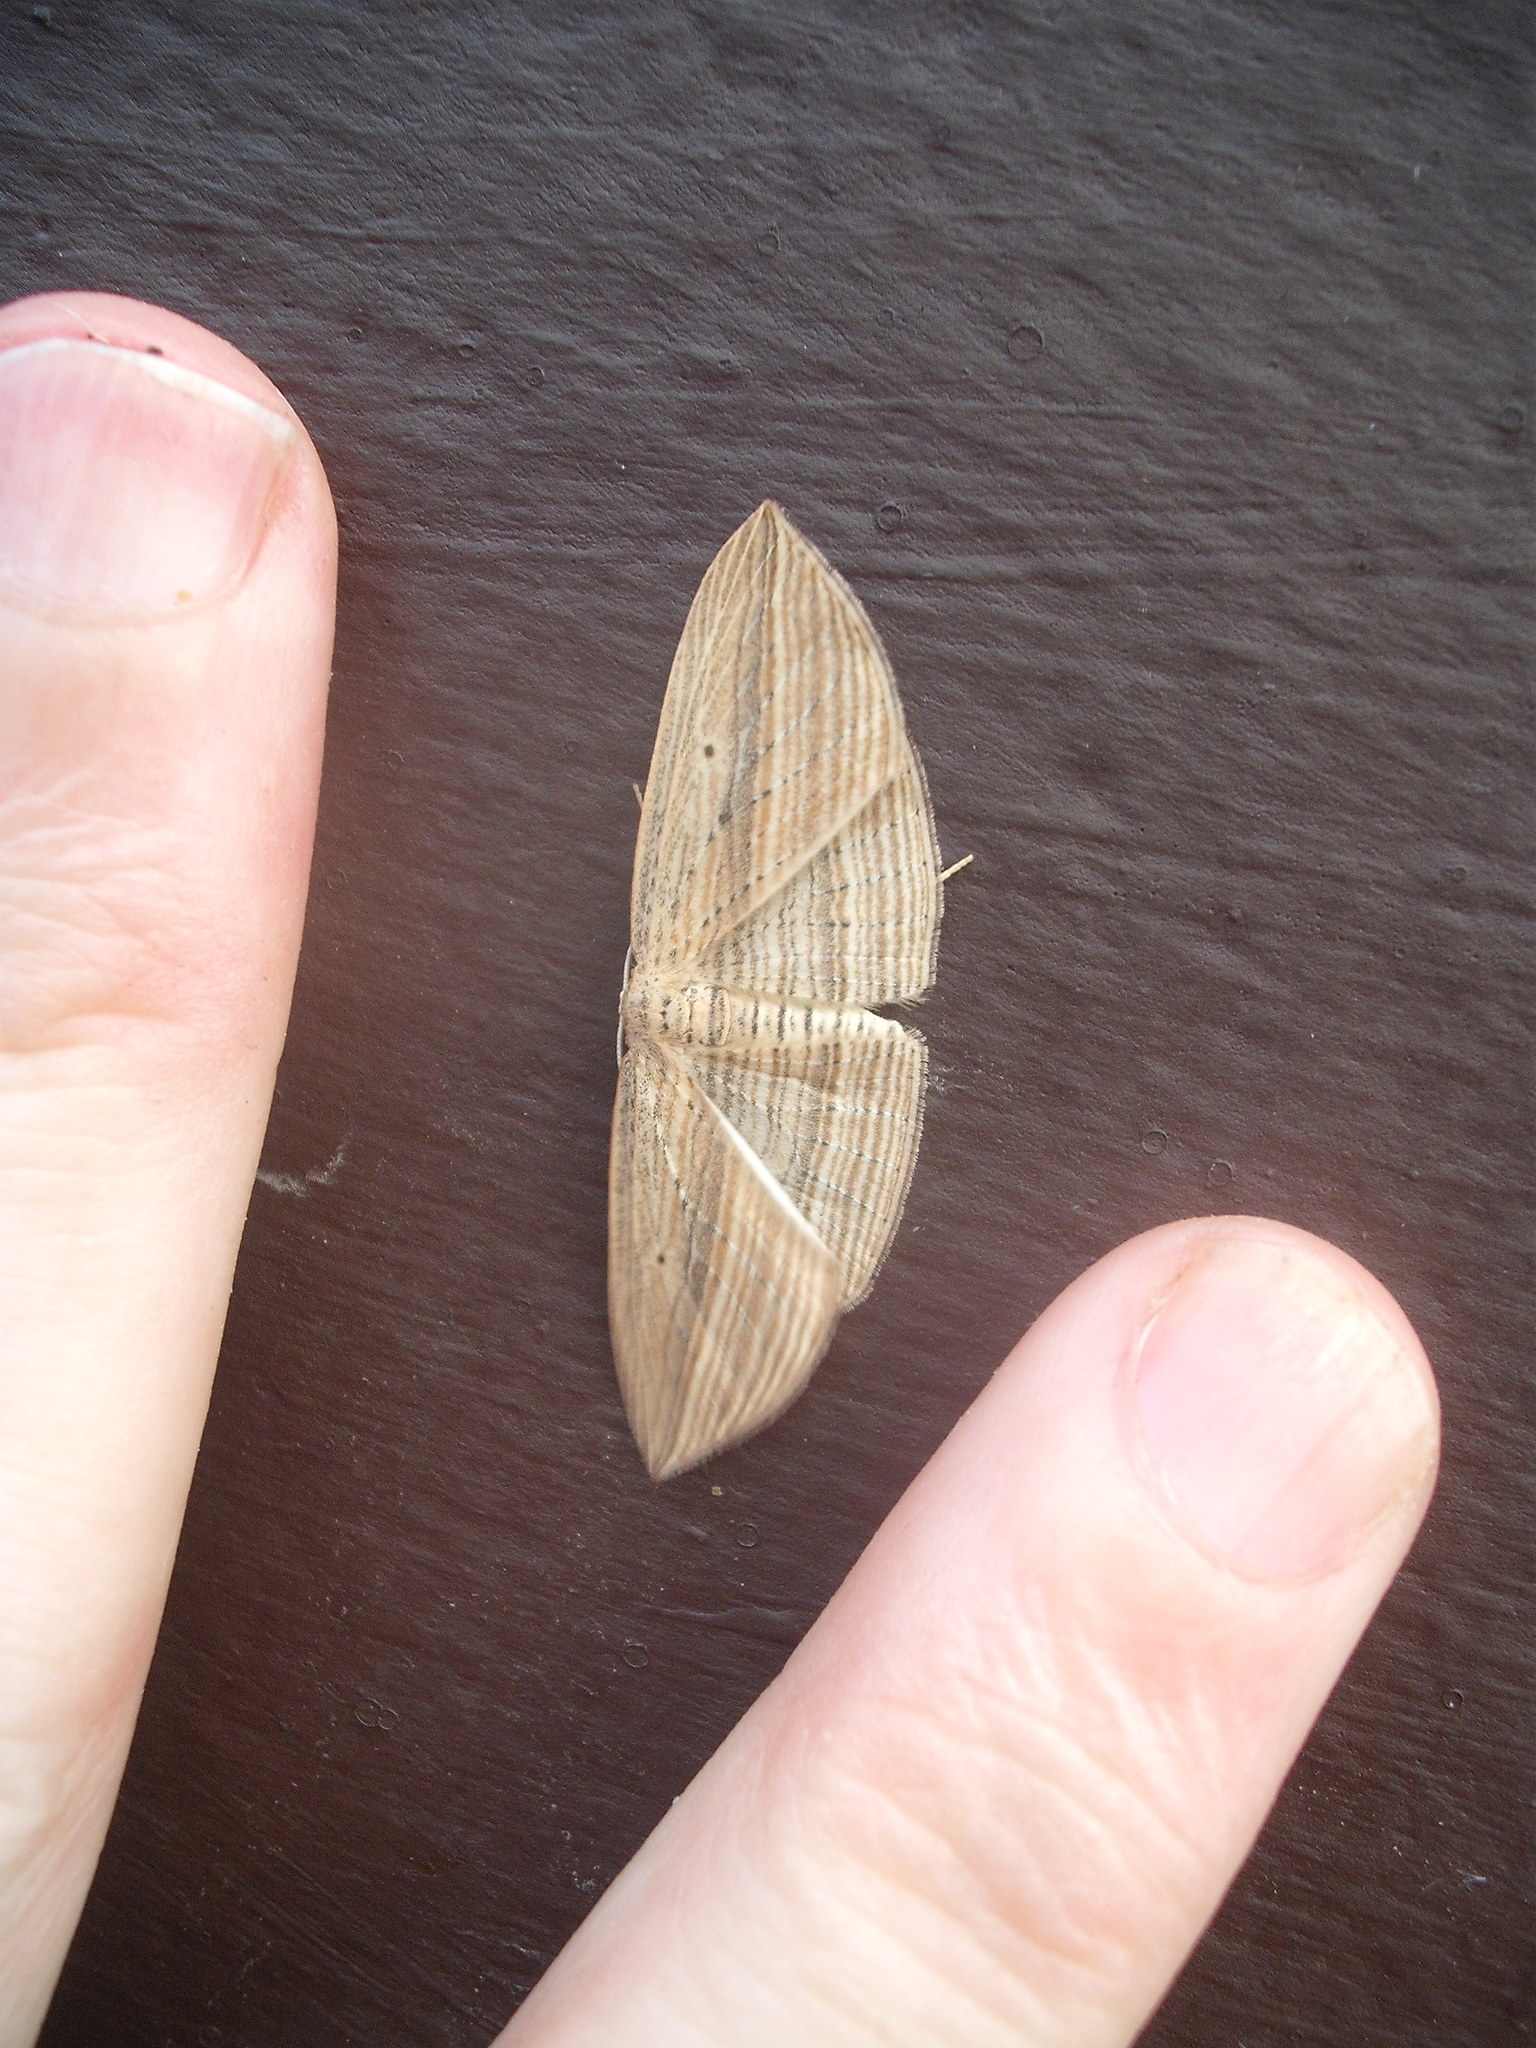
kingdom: Animalia
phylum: Arthropoda
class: Insecta
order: Lepidoptera
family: Geometridae
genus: Epiphryne
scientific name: Epiphryne verriculata
